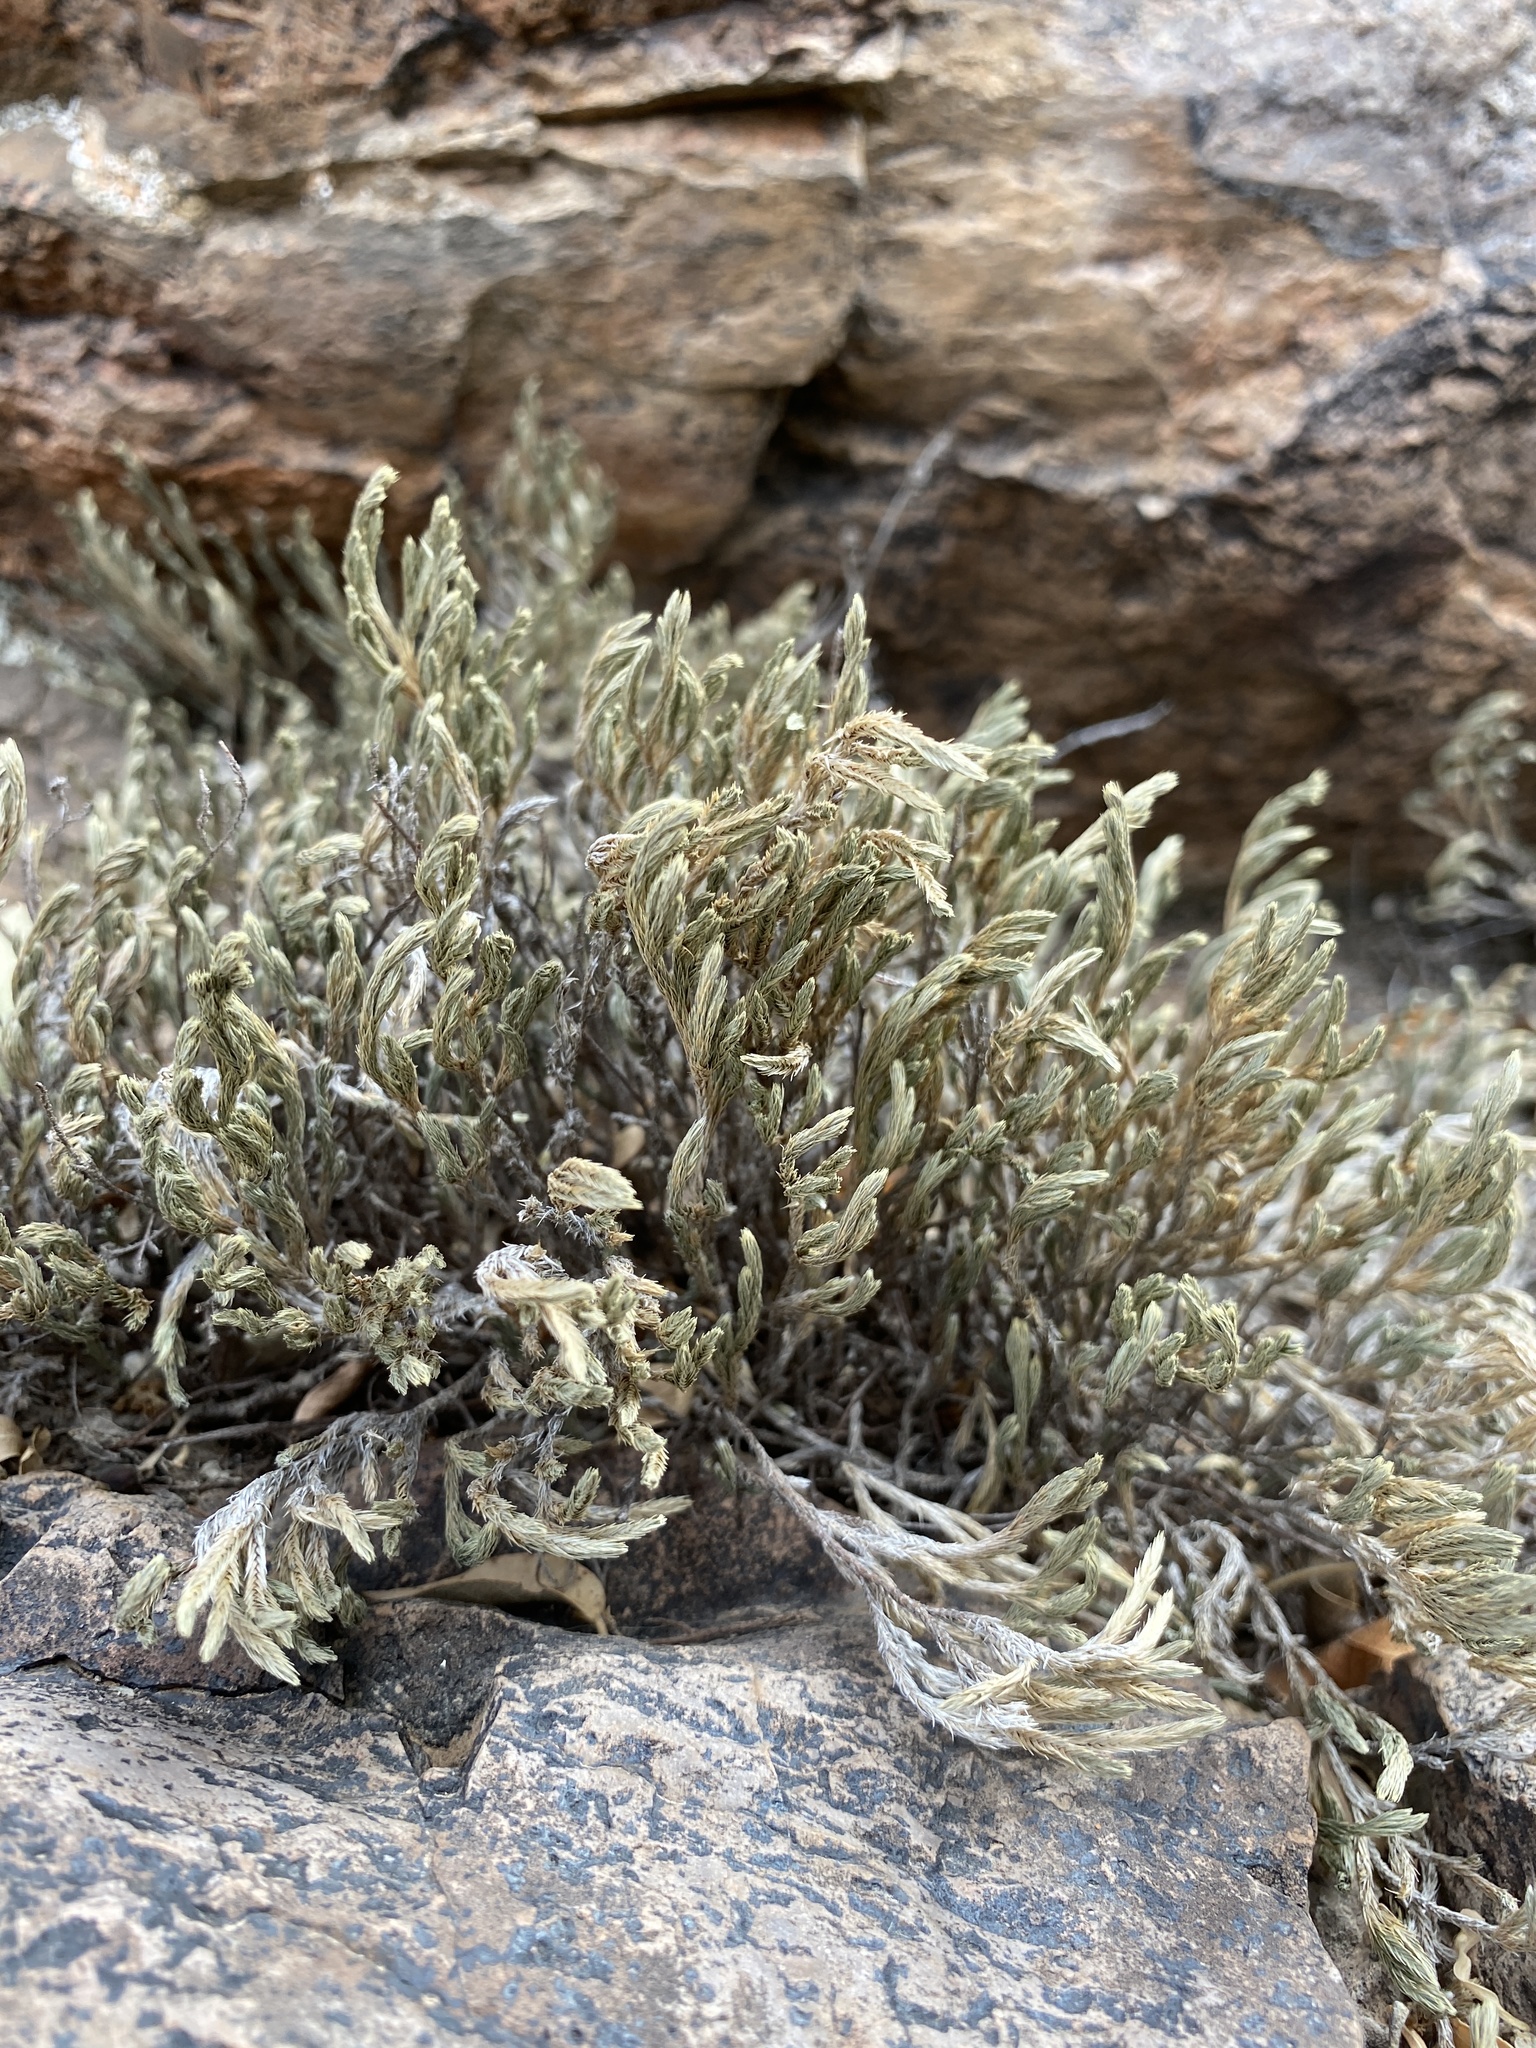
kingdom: Plantae
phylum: Tracheophyta
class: Lycopodiopsida
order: Selaginellales
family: Selaginellaceae
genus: Selaginella
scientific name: Selaginella rupincola
